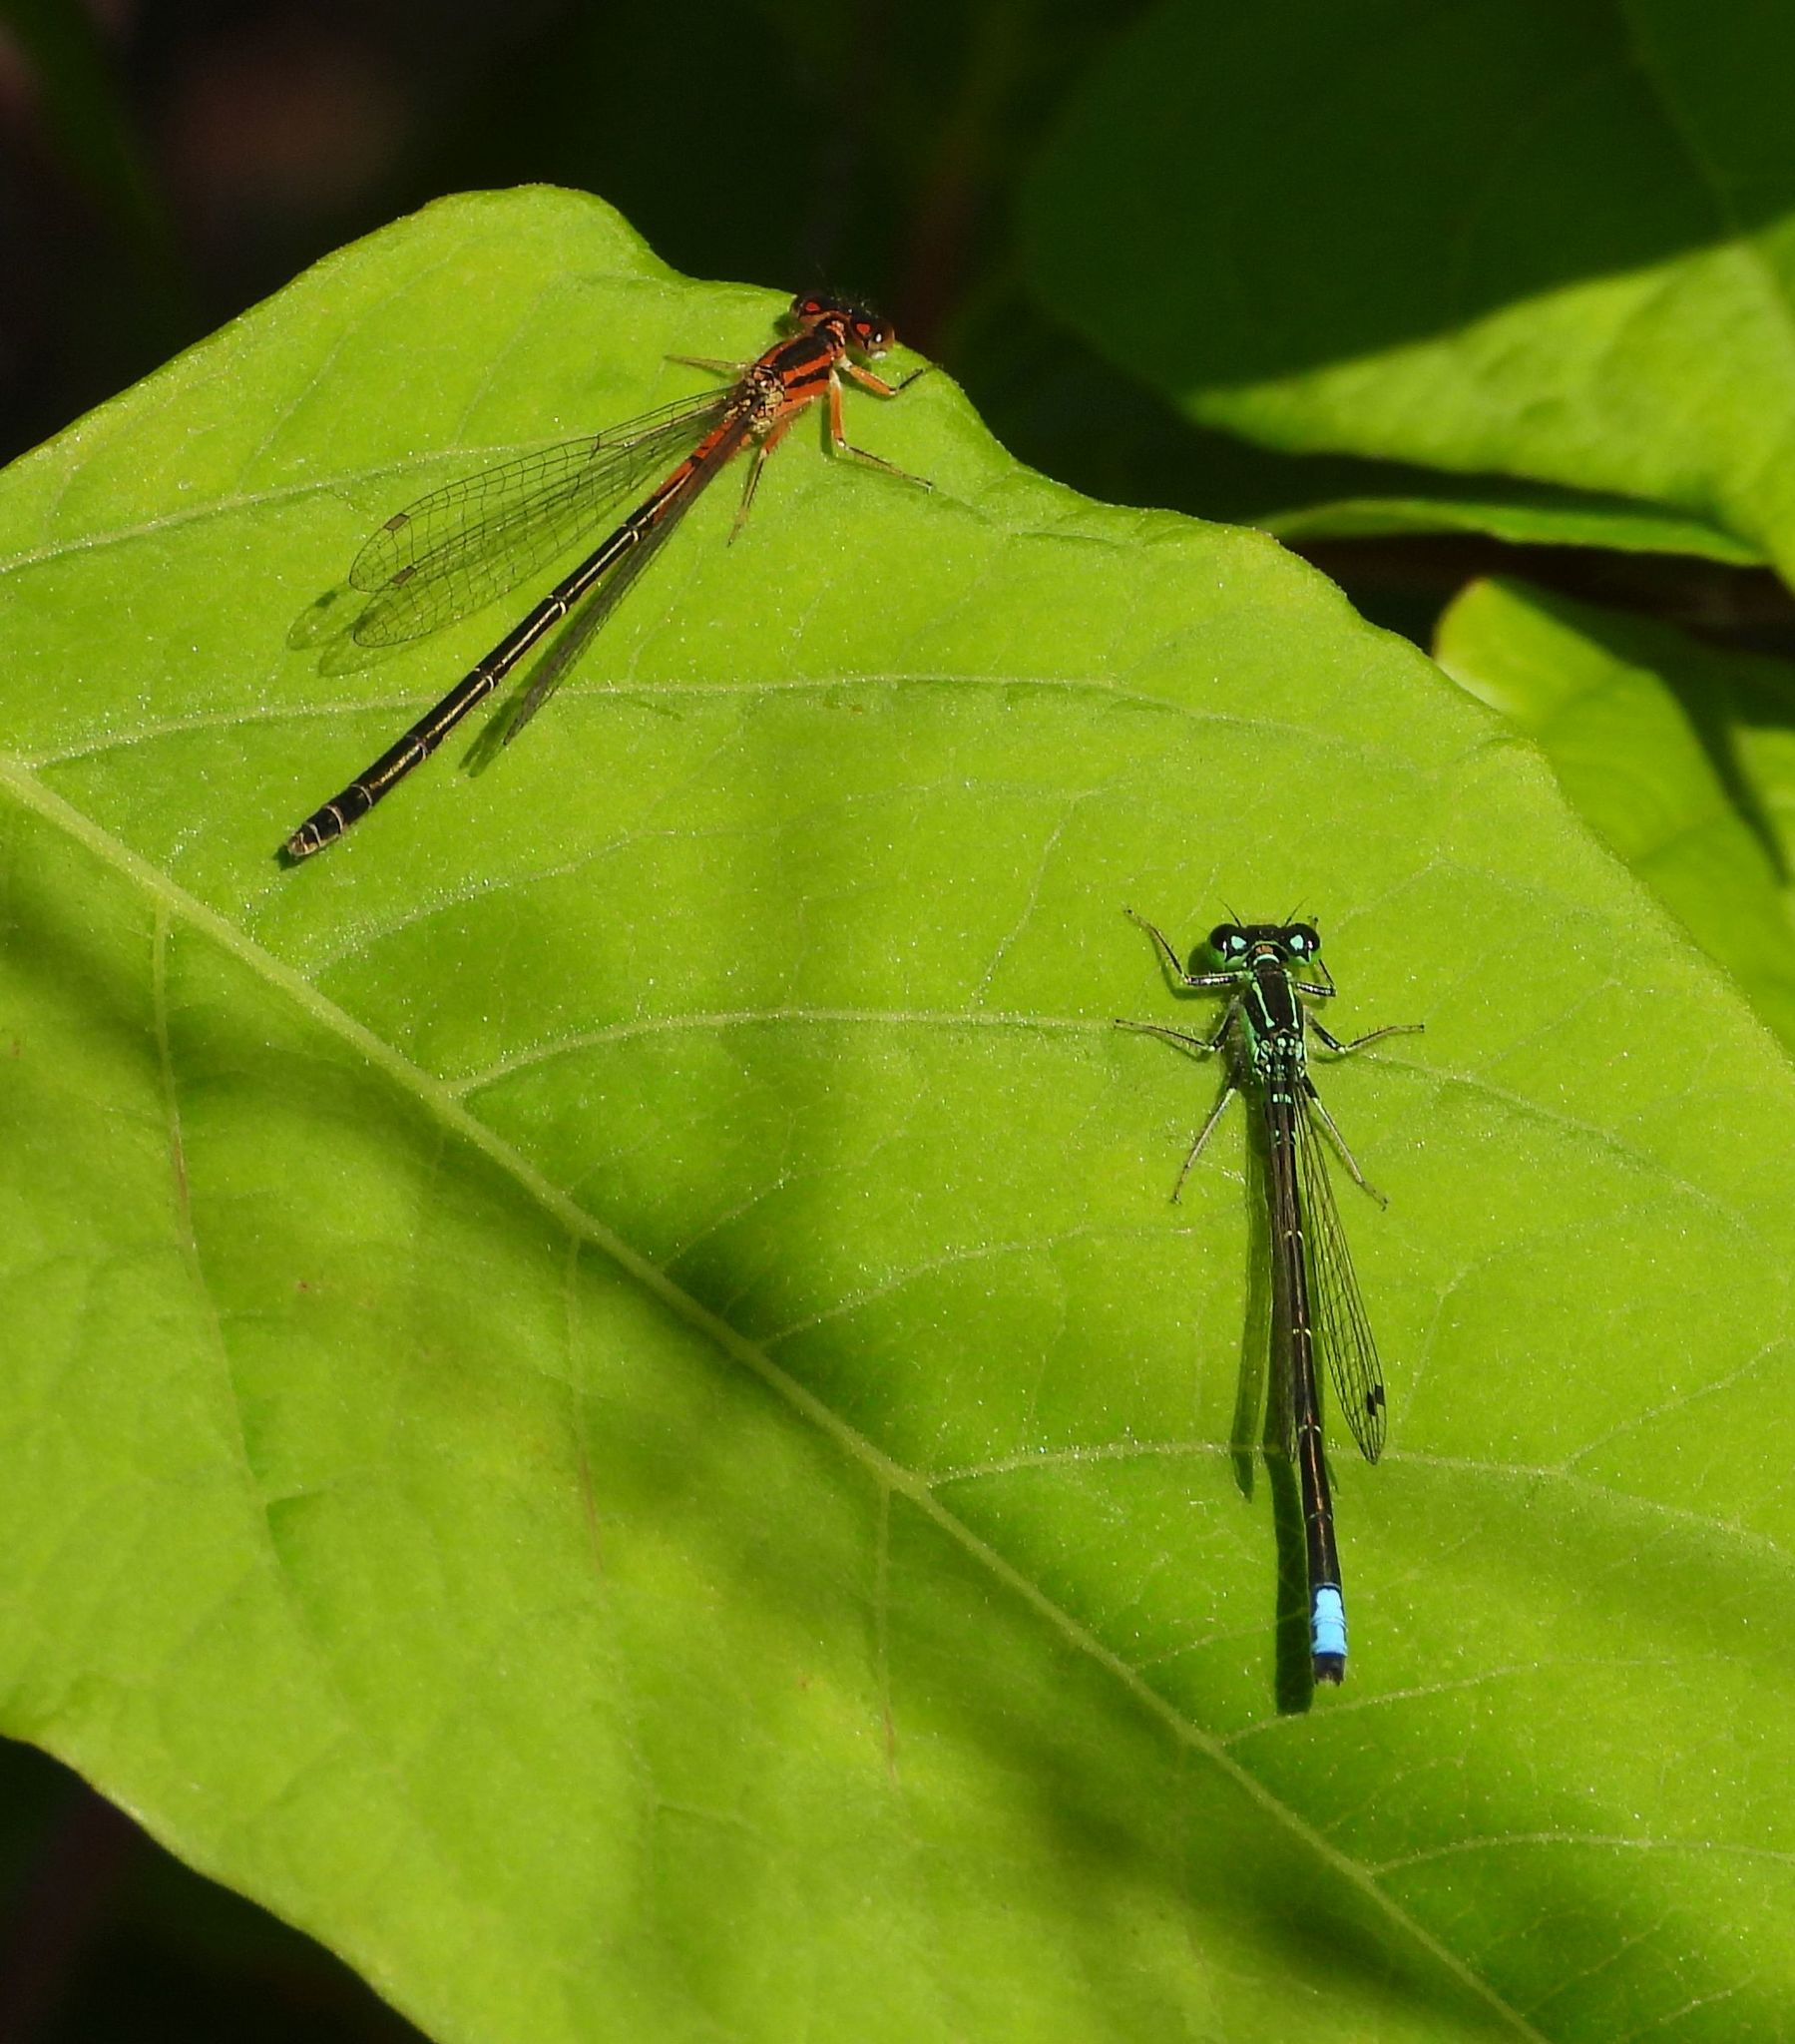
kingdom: Animalia
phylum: Arthropoda
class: Insecta
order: Odonata
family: Coenagrionidae
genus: Ischnura
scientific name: Ischnura verticalis
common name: Eastern forktail
